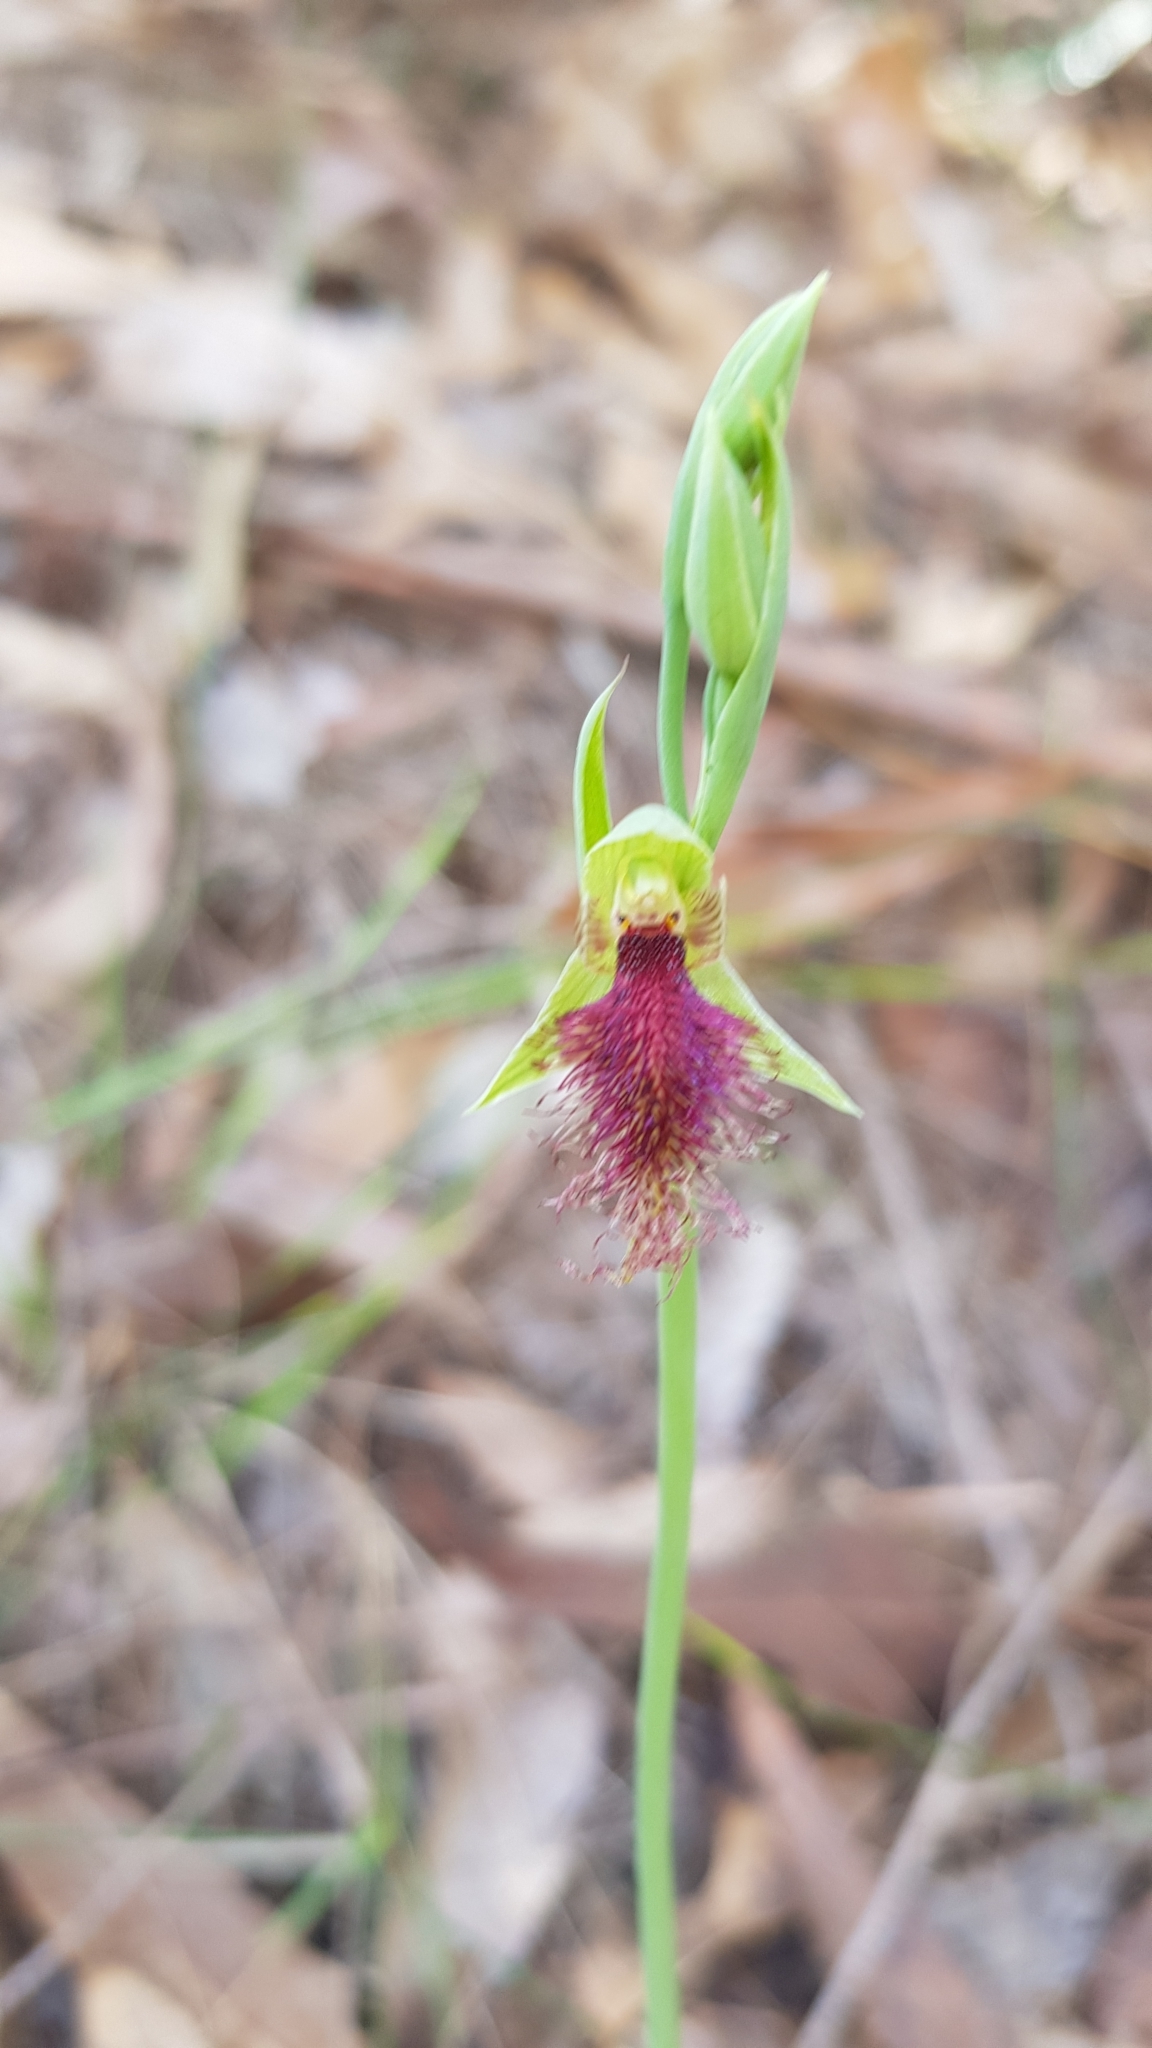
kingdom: Plantae
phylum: Tracheophyta
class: Liliopsida
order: Asparagales
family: Orchidaceae
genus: Calochilus
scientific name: Calochilus robertsonii
